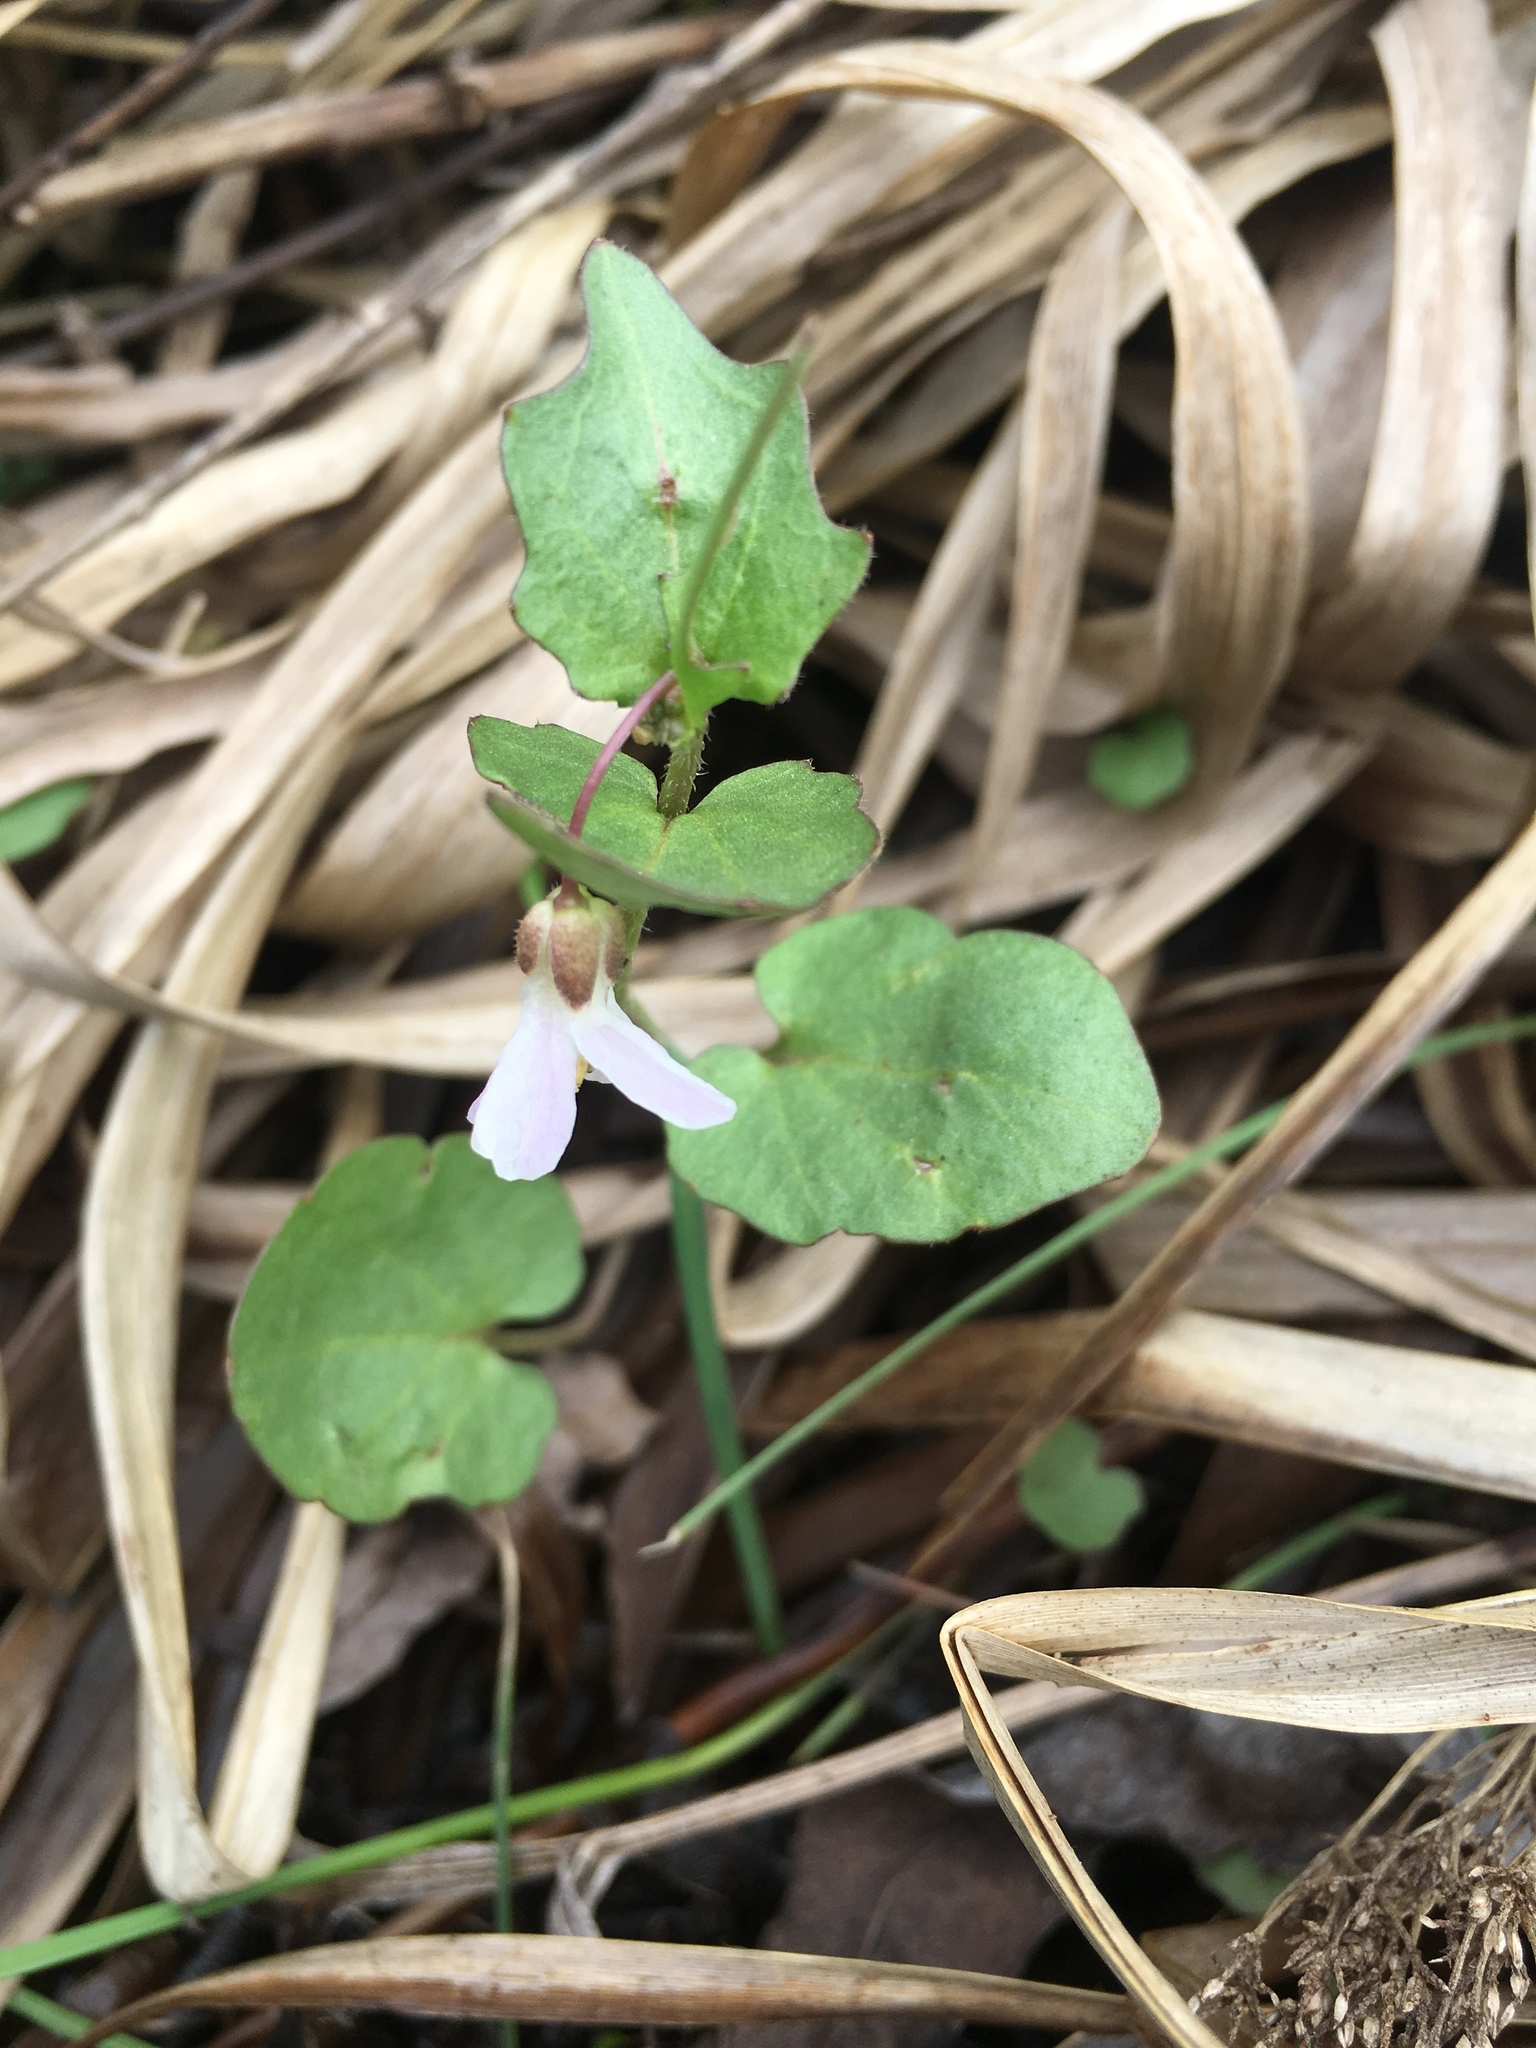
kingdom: Plantae
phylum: Tracheophyta
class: Magnoliopsida
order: Brassicales
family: Brassicaceae
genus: Cardamine
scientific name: Cardamine douglassii
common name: Purple cress
